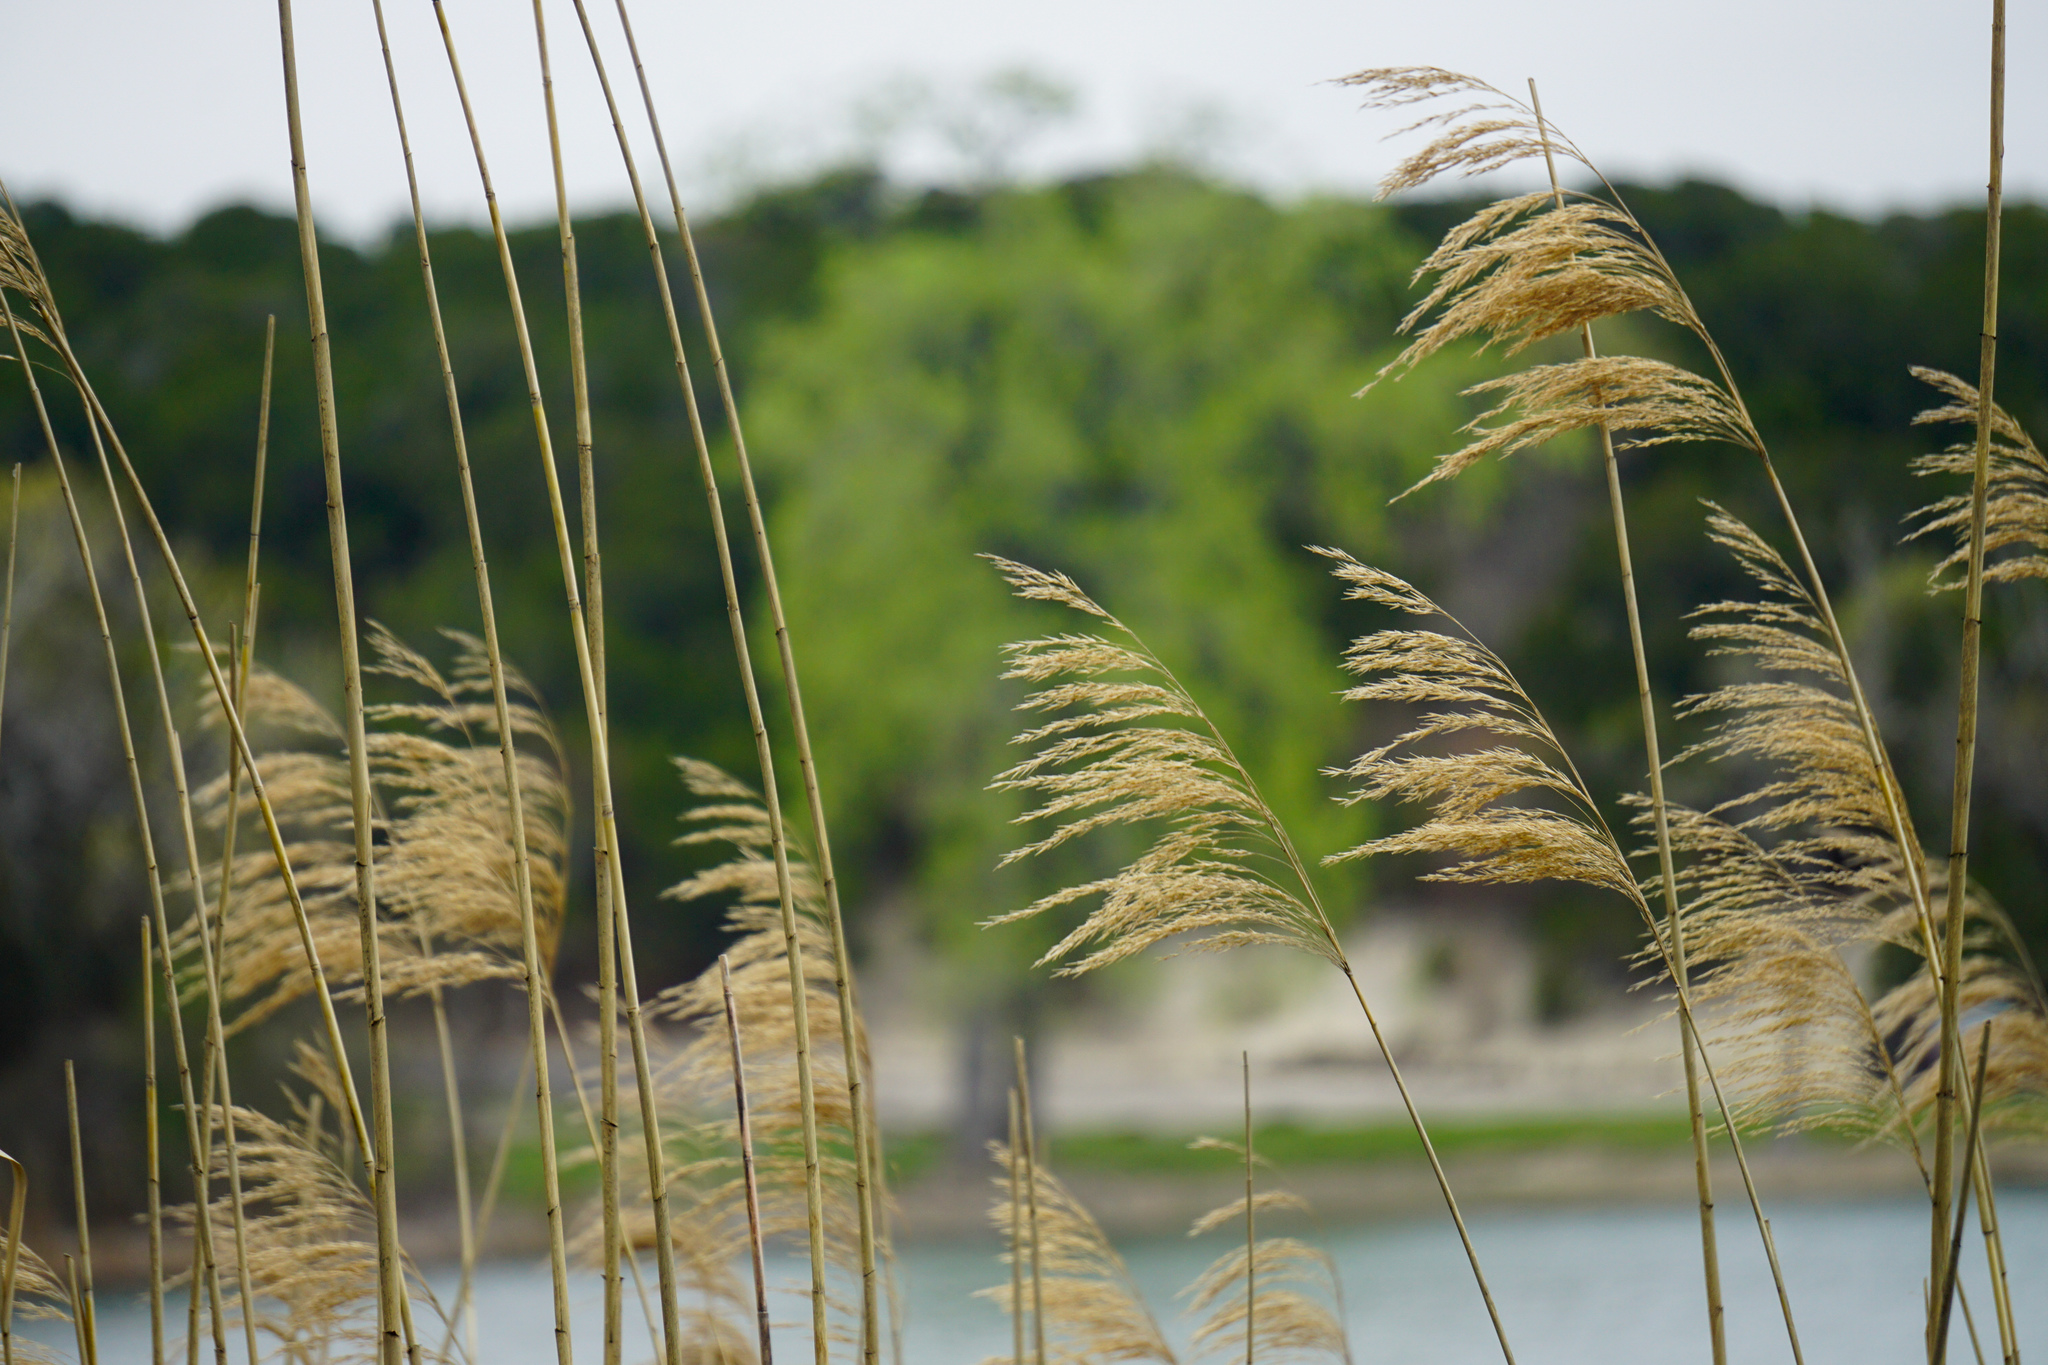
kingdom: Plantae
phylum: Tracheophyta
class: Liliopsida
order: Poales
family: Poaceae
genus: Phragmites
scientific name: Phragmites australis
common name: Common reed
